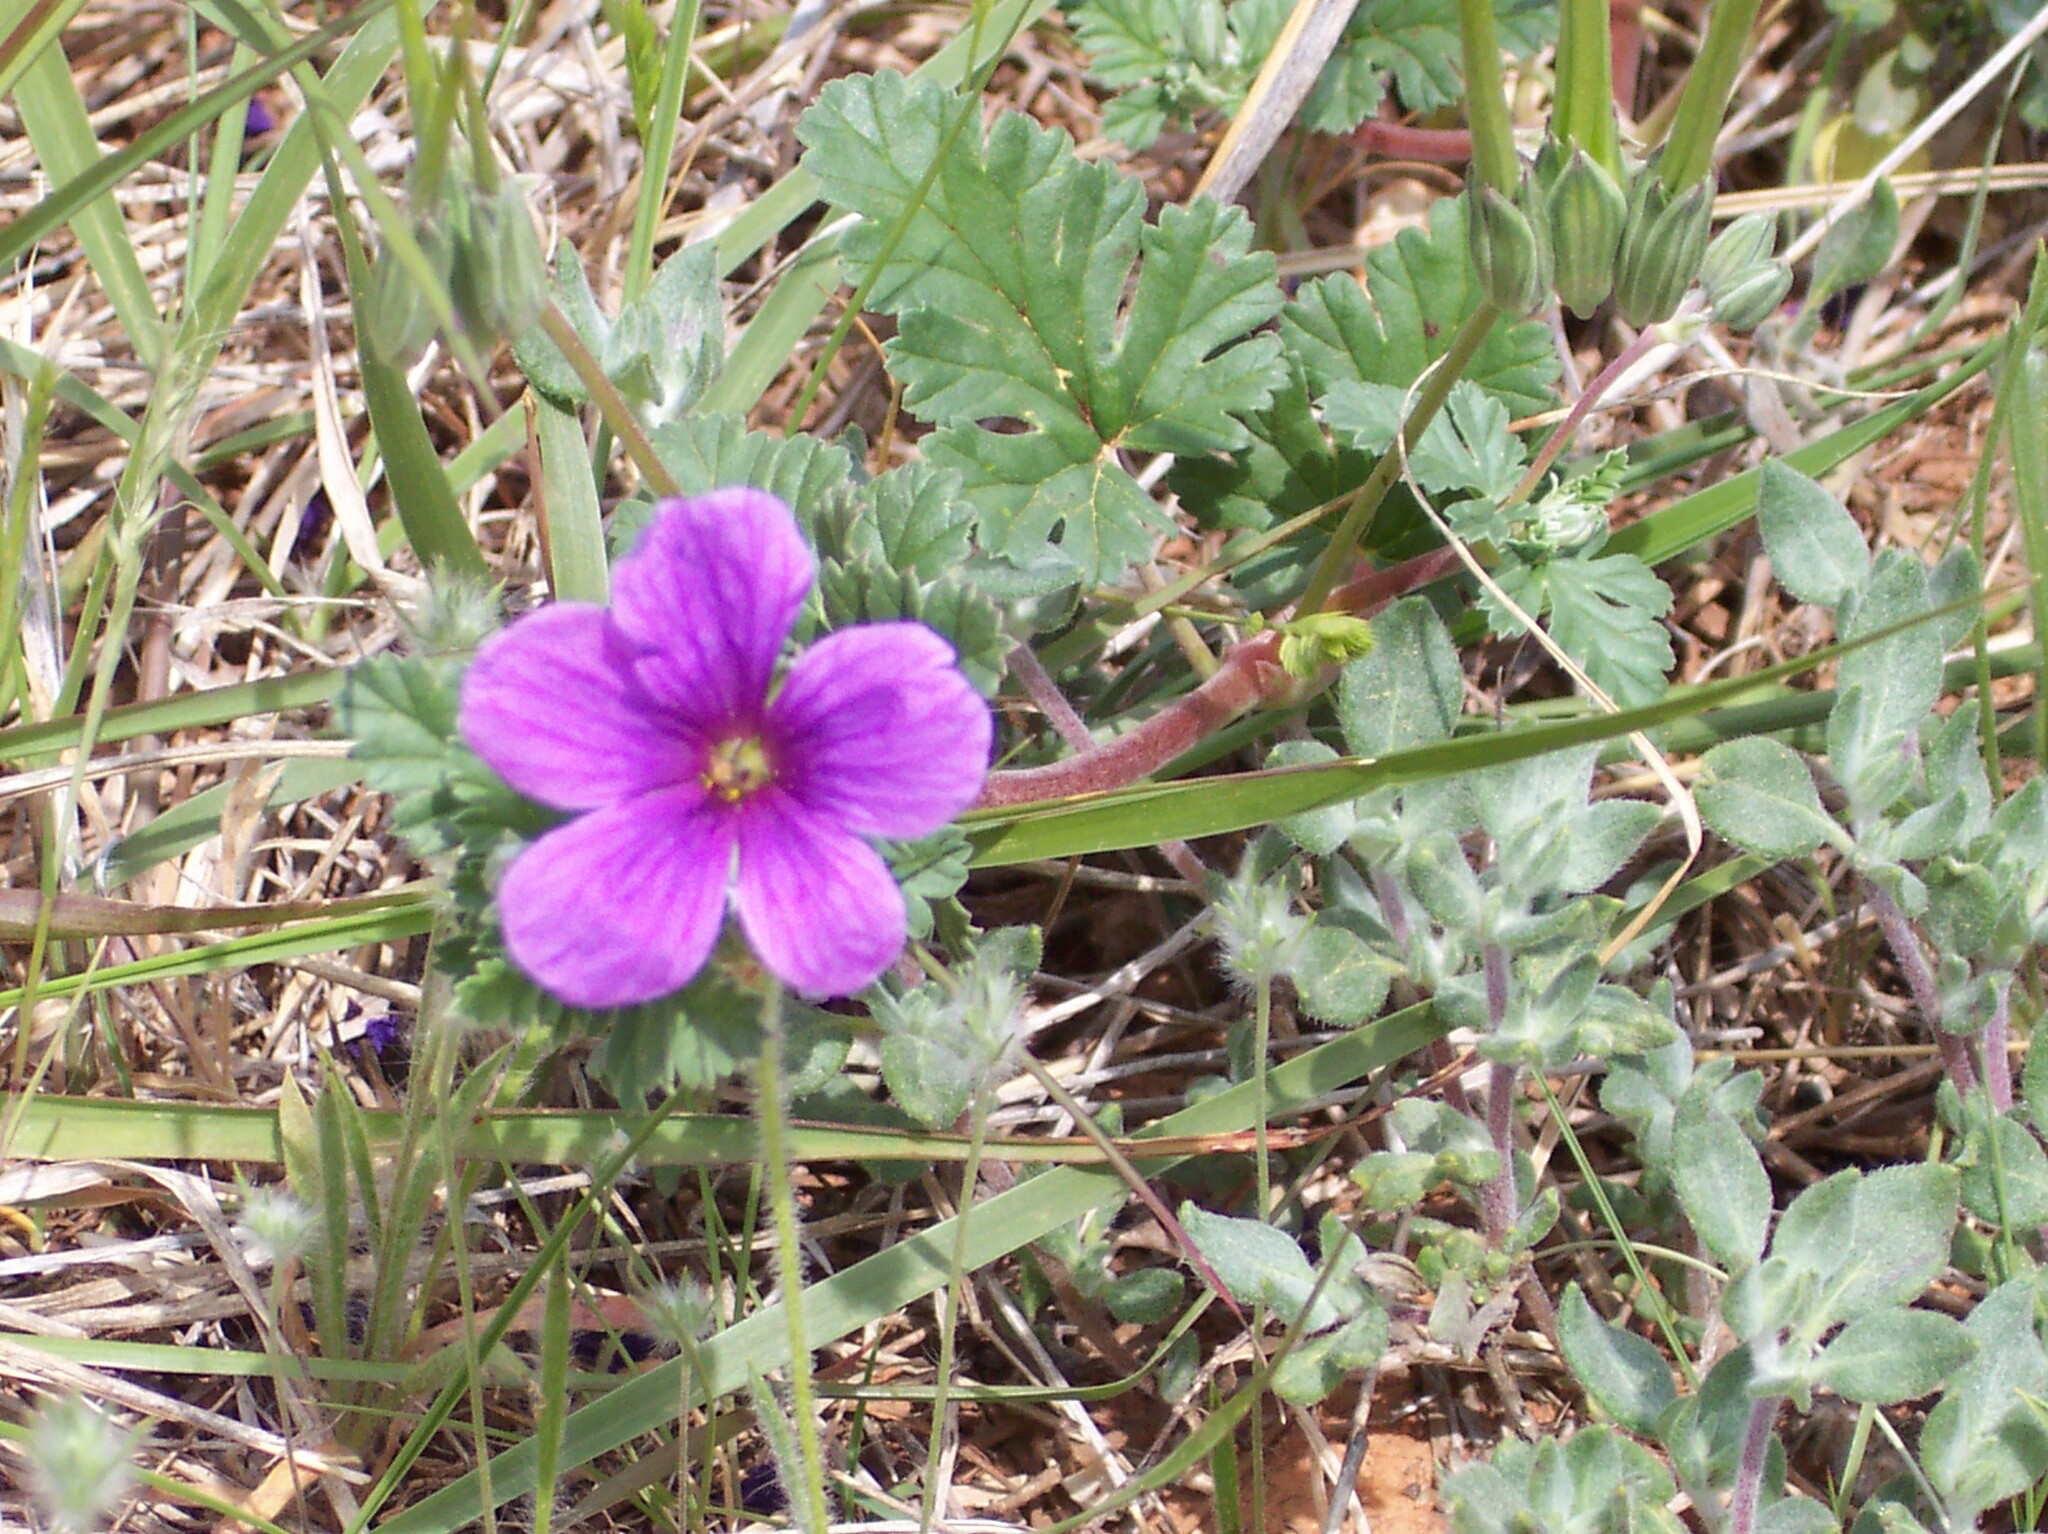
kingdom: Plantae
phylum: Tracheophyta
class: Magnoliopsida
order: Geraniales
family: Geraniaceae
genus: Erodium
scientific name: Erodium texanum
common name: Texas stork's-bill
